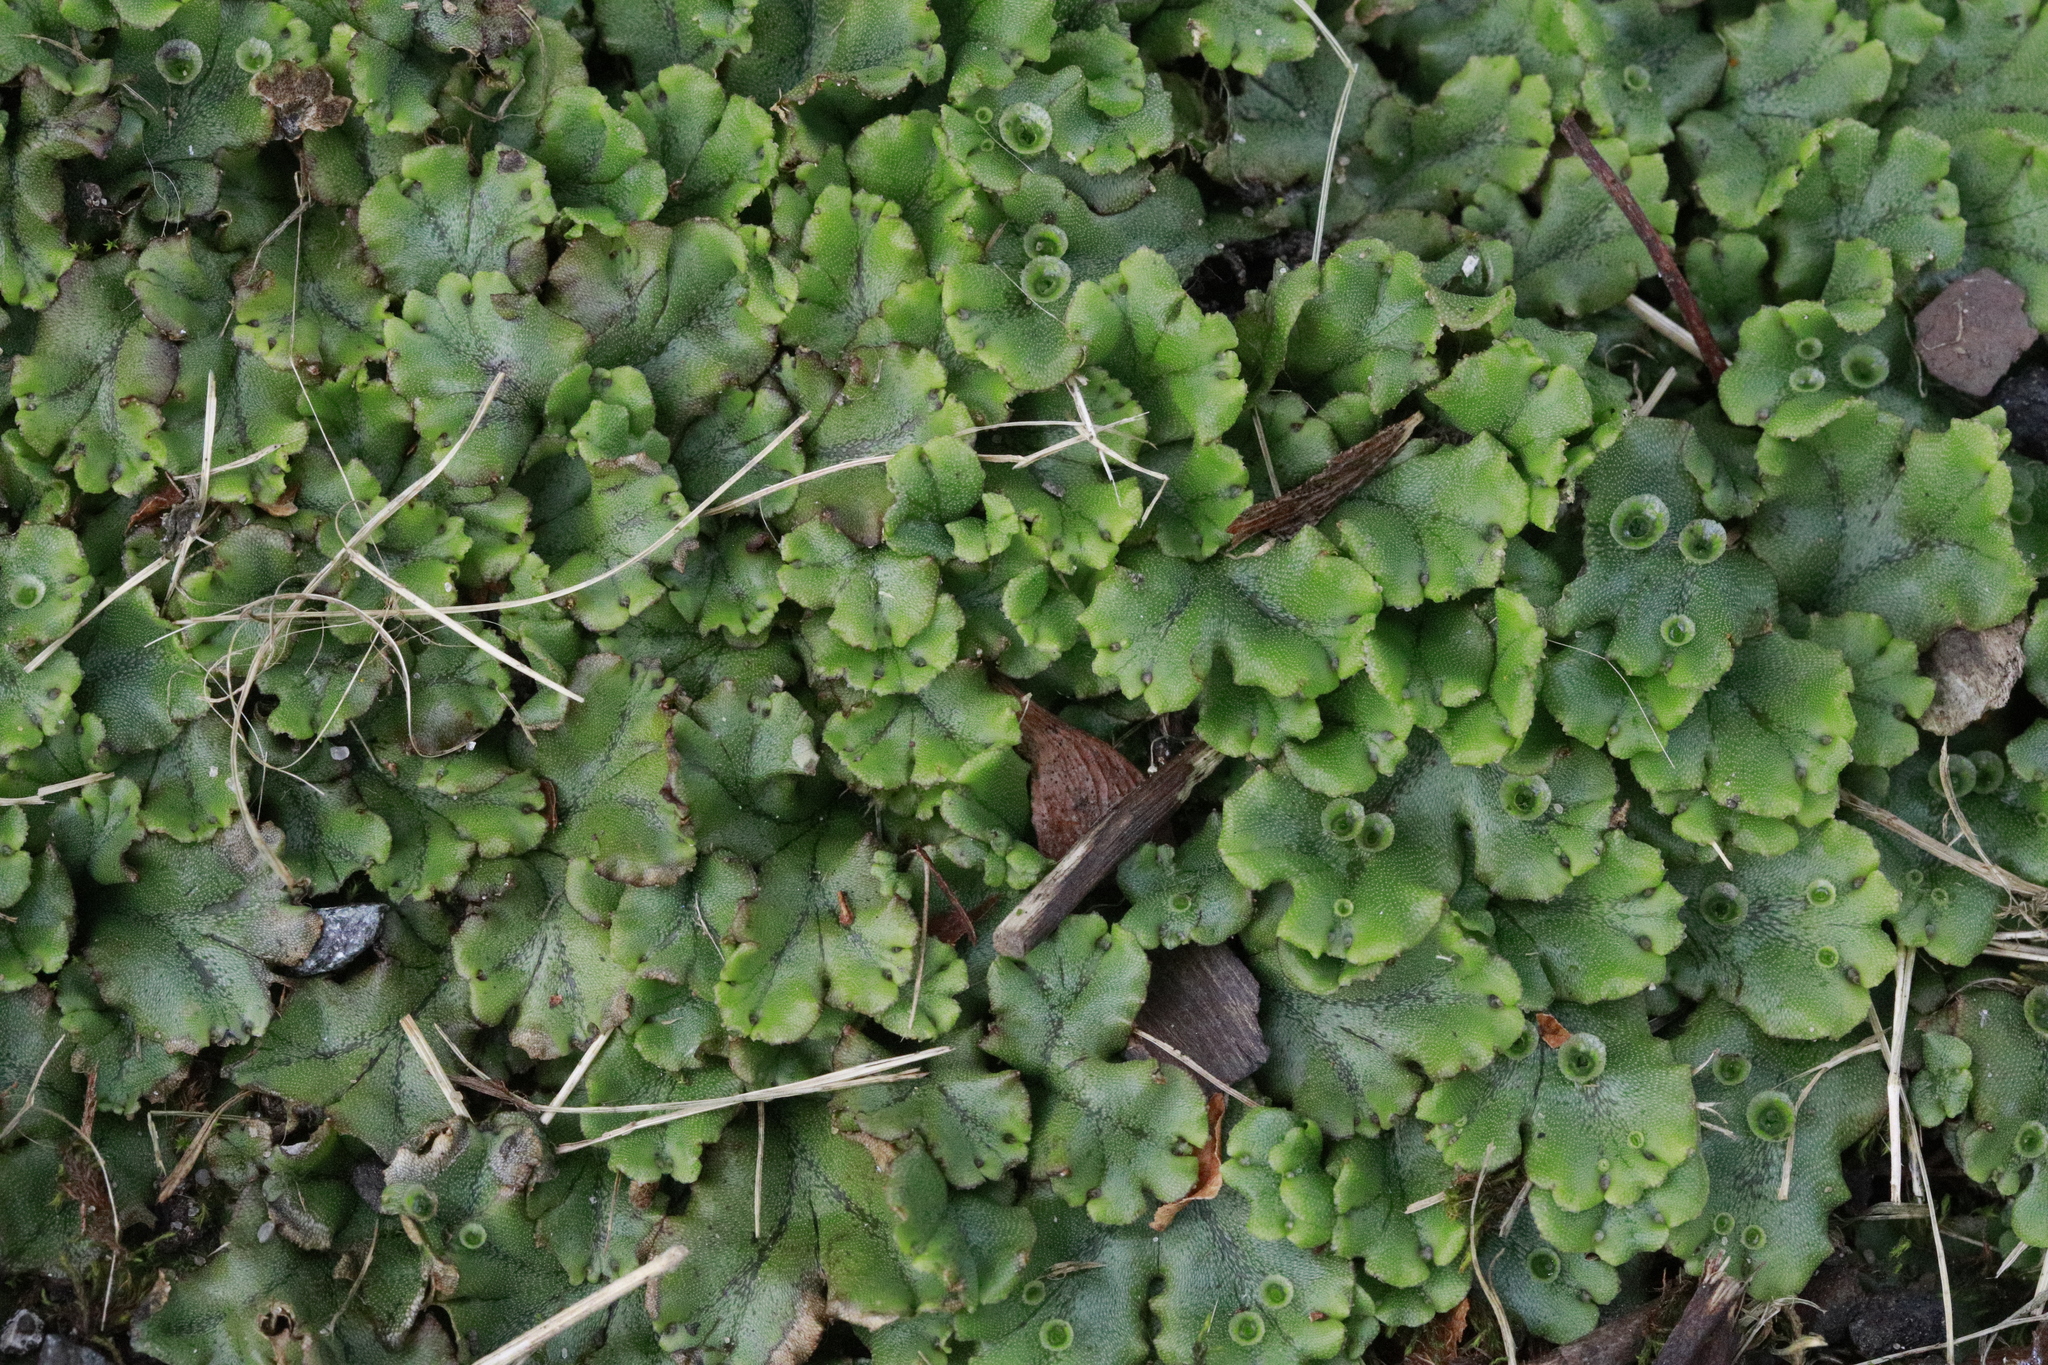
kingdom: Plantae
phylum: Marchantiophyta
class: Marchantiopsida
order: Marchantiales
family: Marchantiaceae
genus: Marchantia
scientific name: Marchantia polymorpha
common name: Common liverwort
